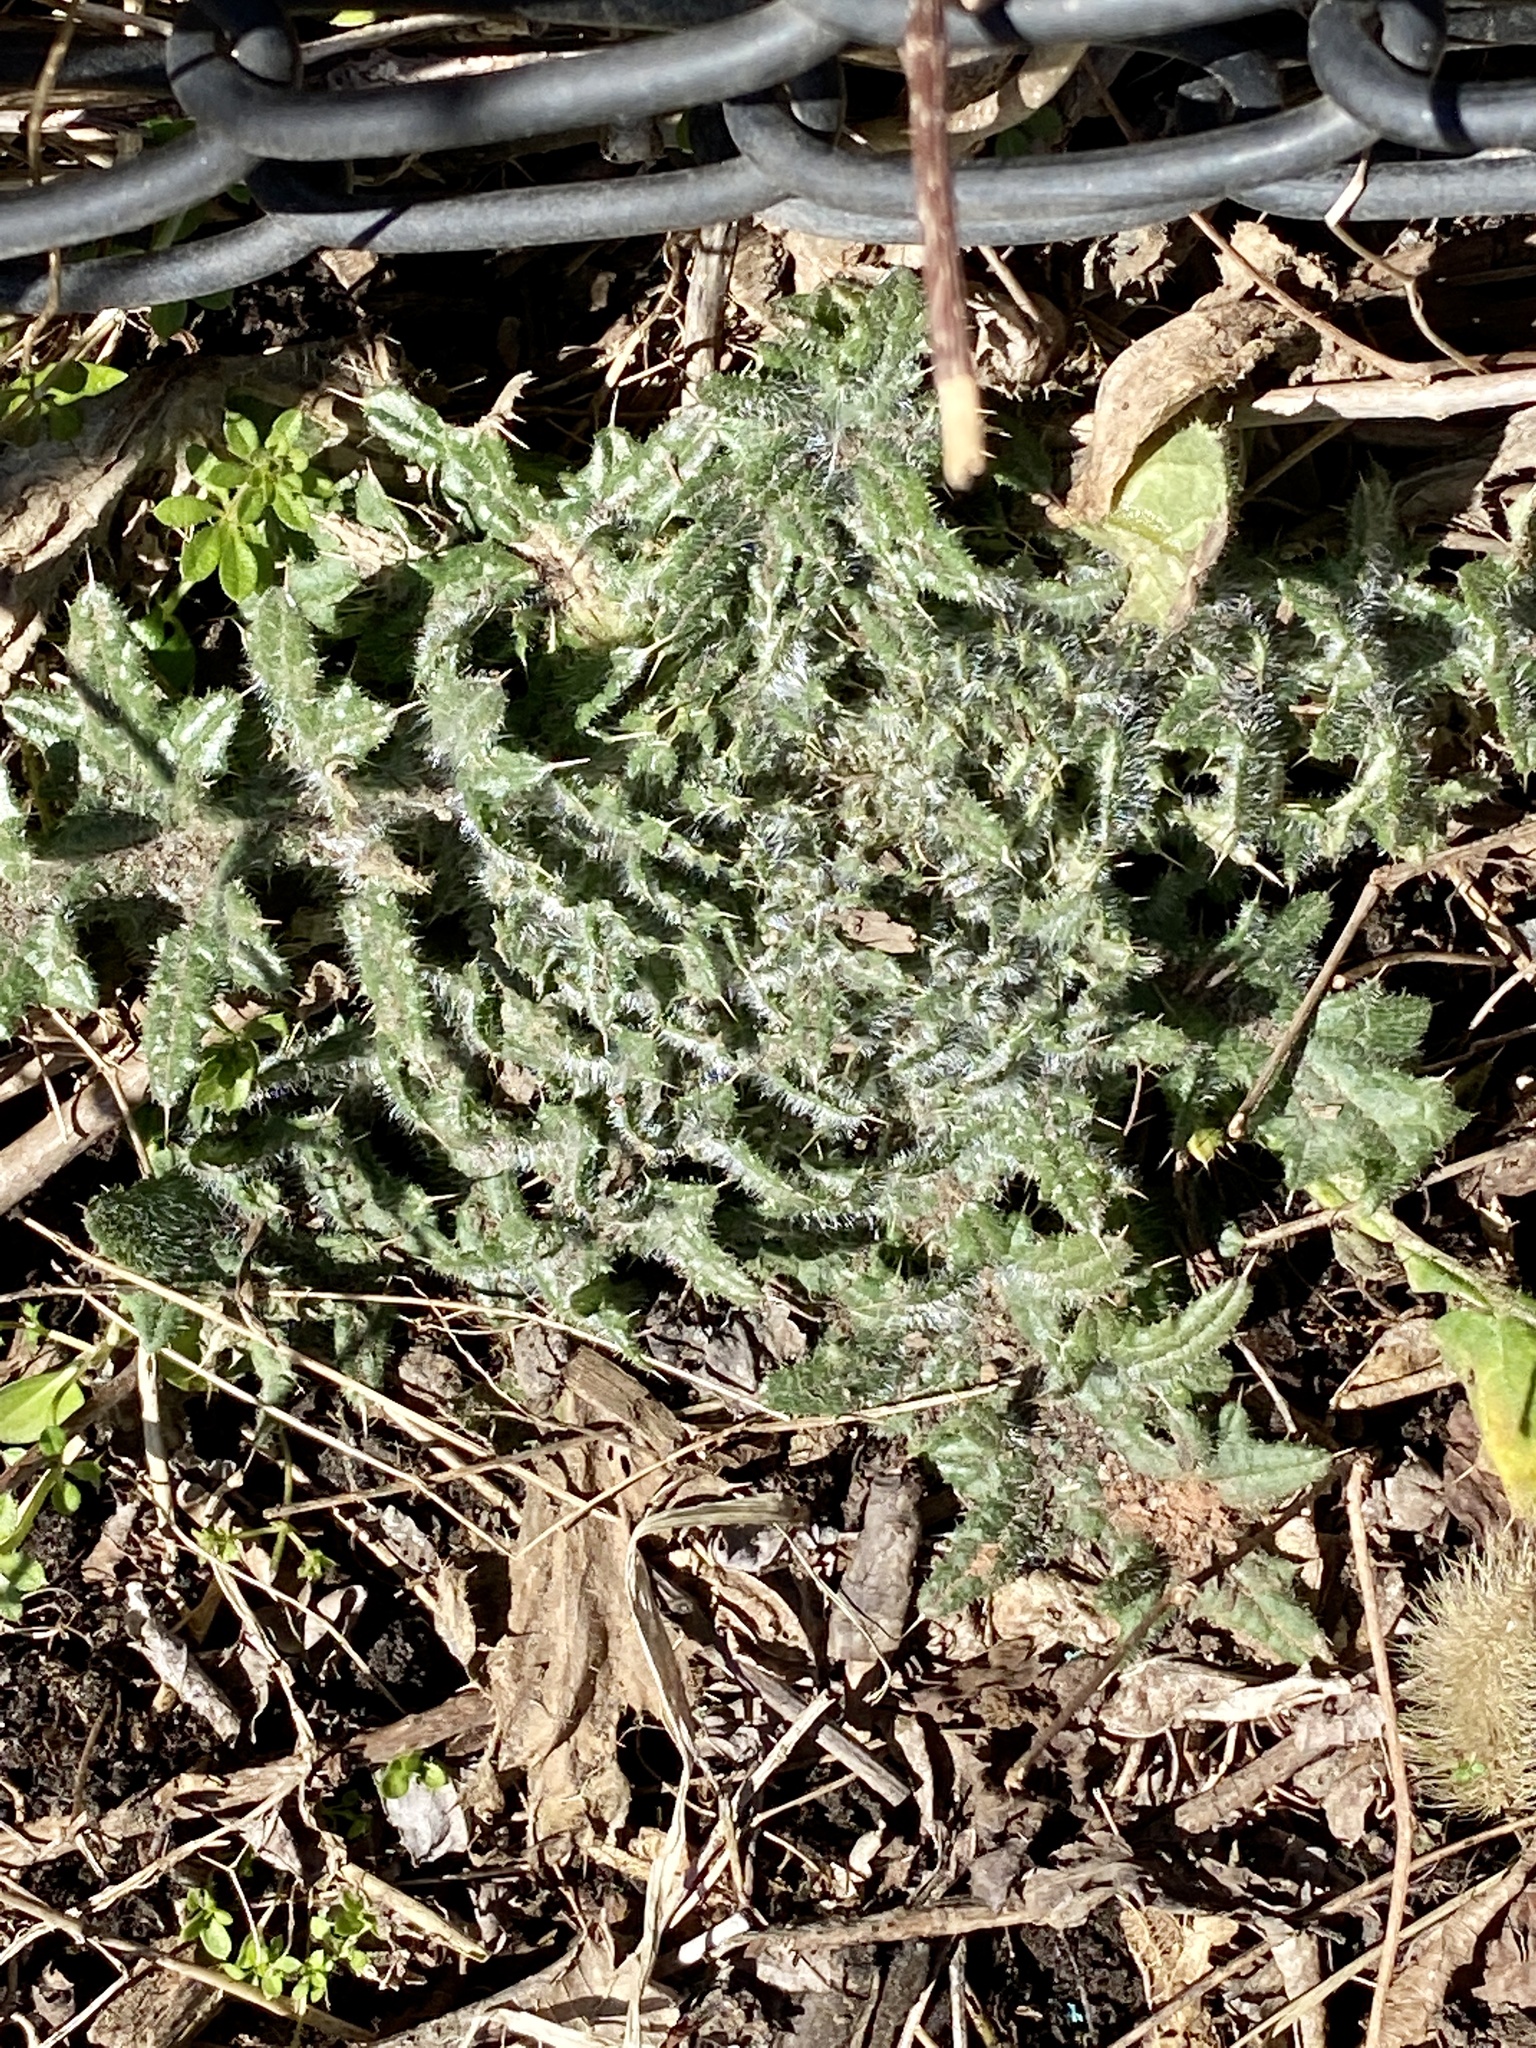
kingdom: Plantae
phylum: Tracheophyta
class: Magnoliopsida
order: Asterales
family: Asteraceae
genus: Cirsium
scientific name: Cirsium vulgare
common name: Bull thistle
